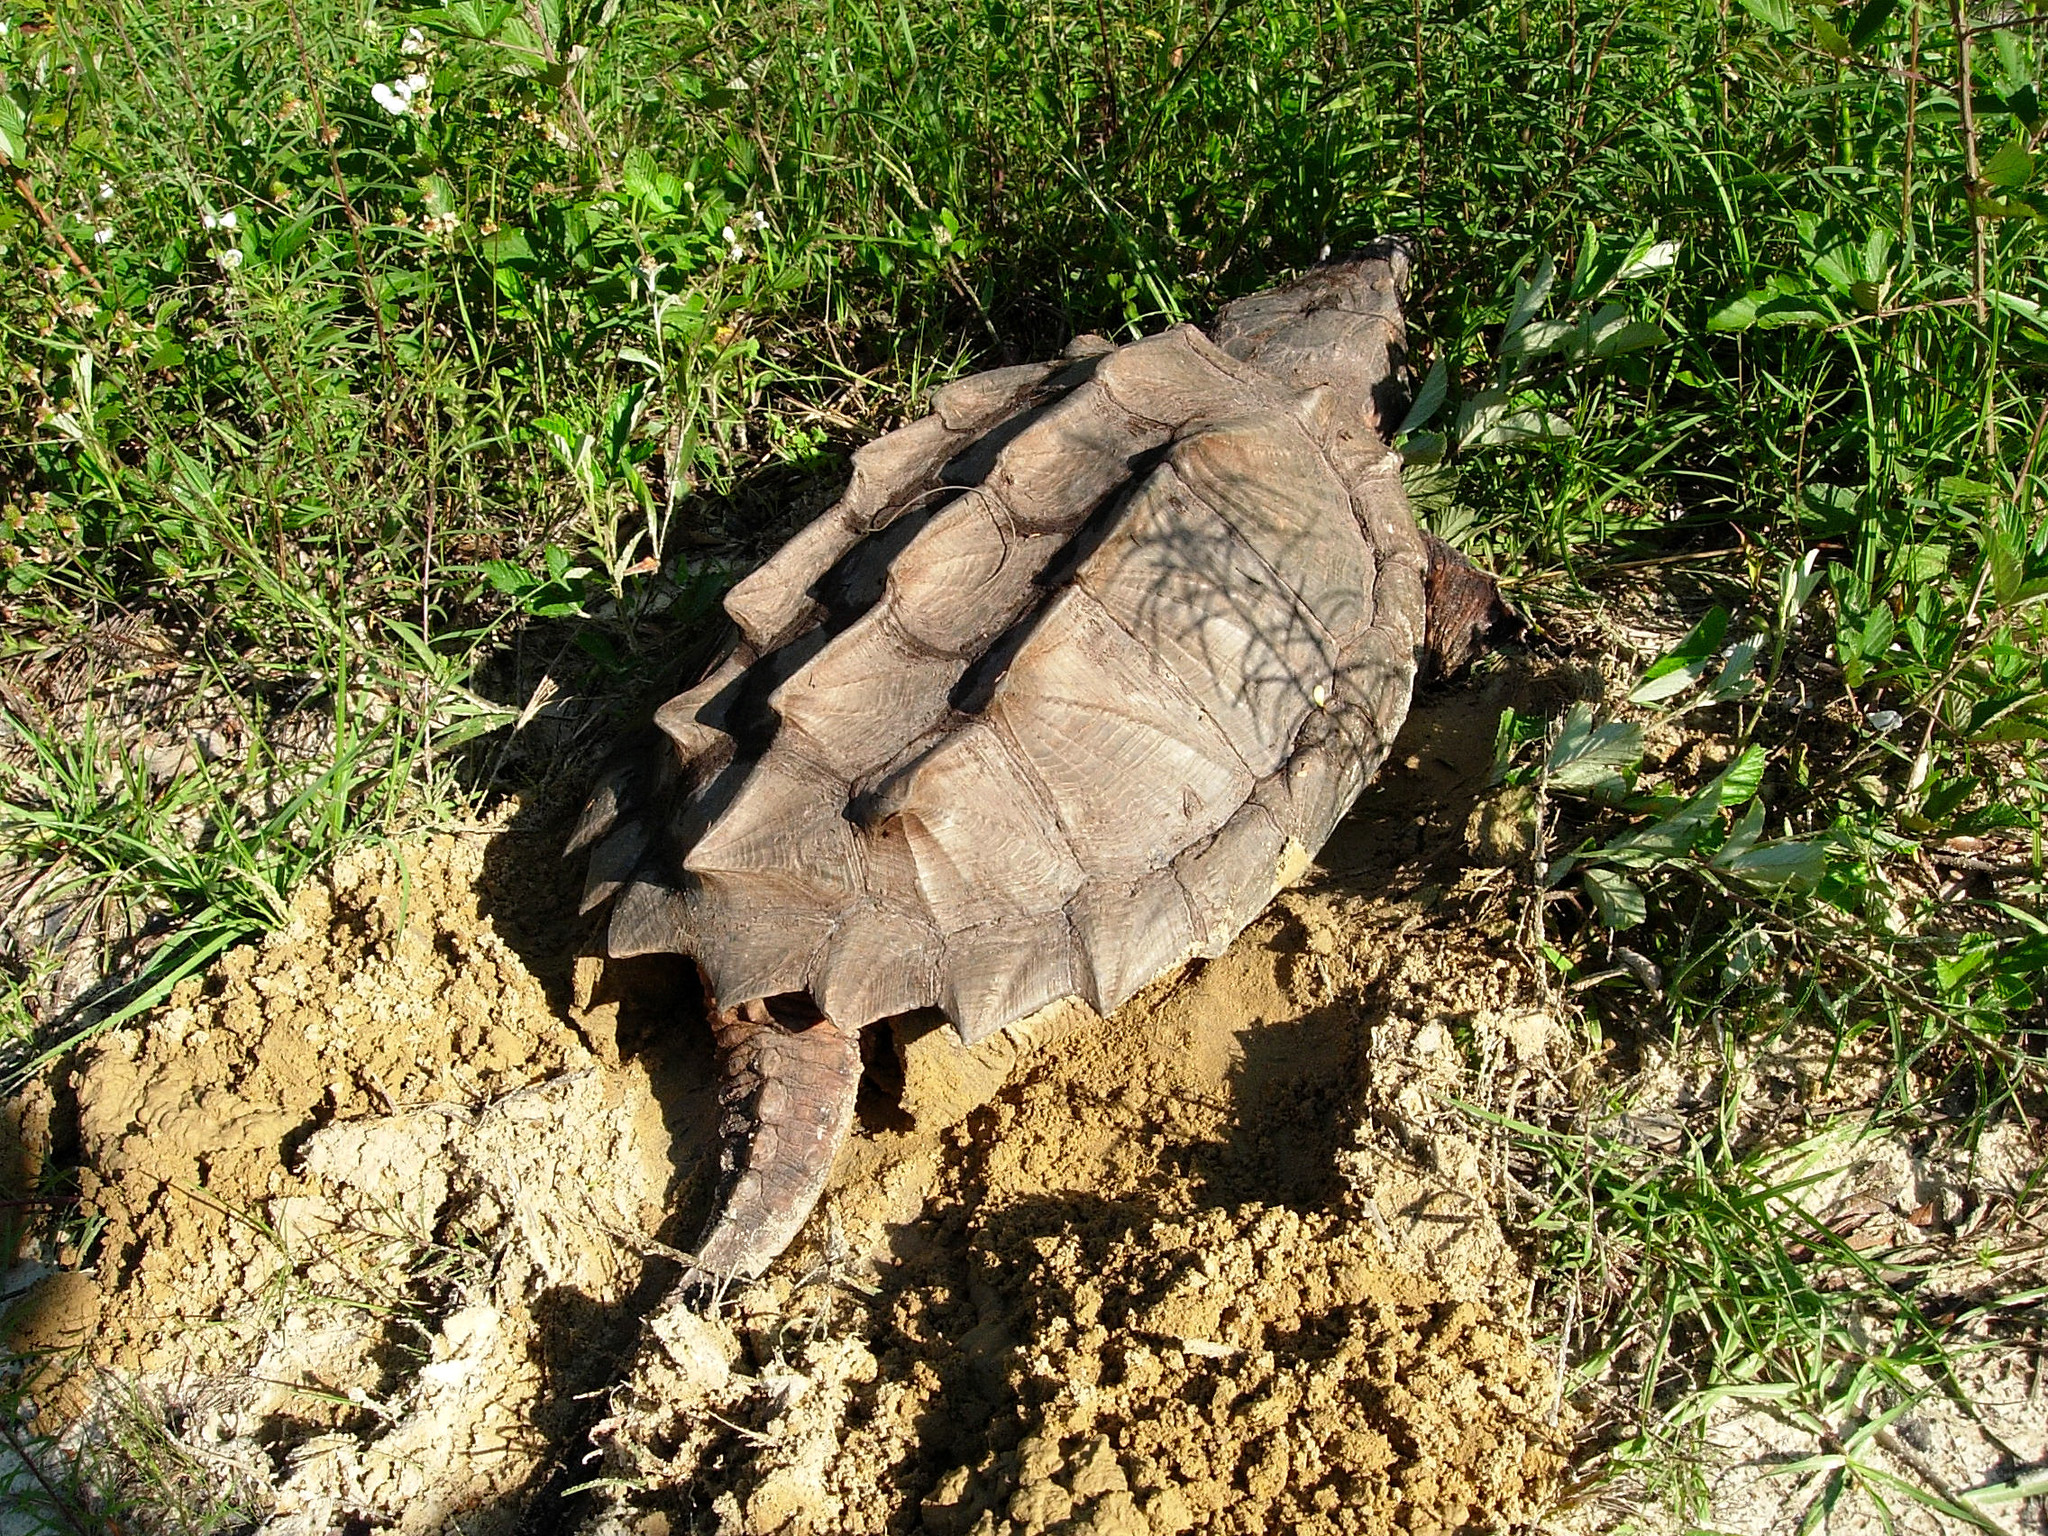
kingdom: Animalia
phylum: Chordata
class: Testudines
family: Chelydridae
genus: Macrochelys
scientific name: Macrochelys temminckii
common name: Alligator snapping turtle
